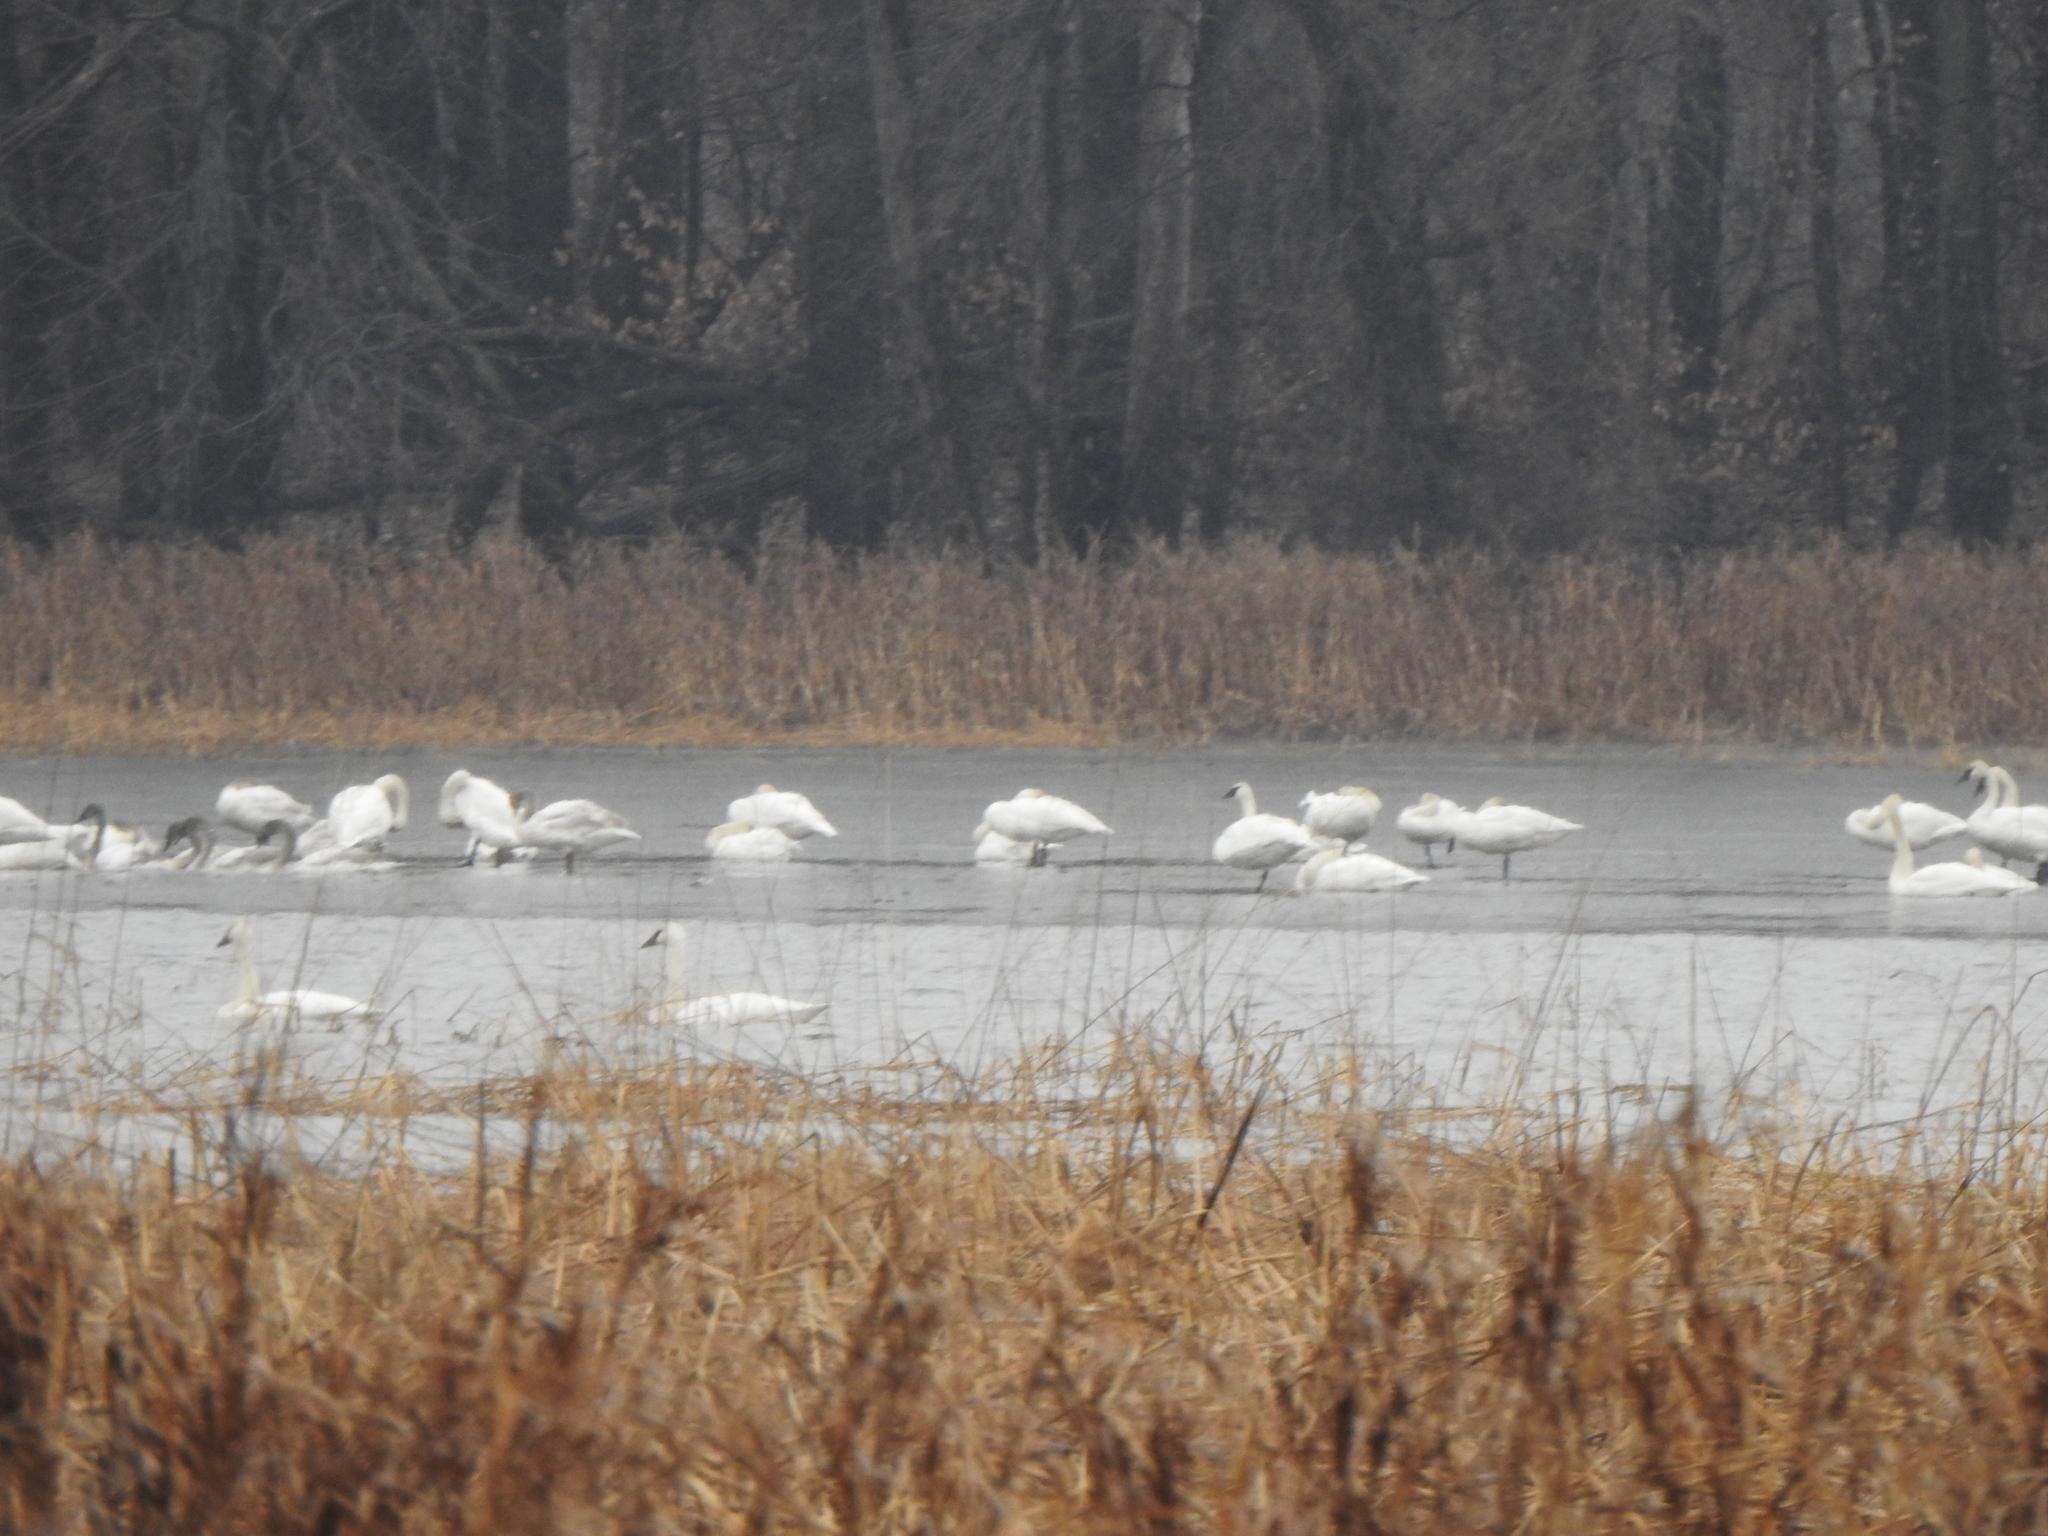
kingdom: Animalia
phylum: Chordata
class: Aves
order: Anseriformes
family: Anatidae
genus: Cygnus
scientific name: Cygnus buccinator
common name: Trumpeter swan
